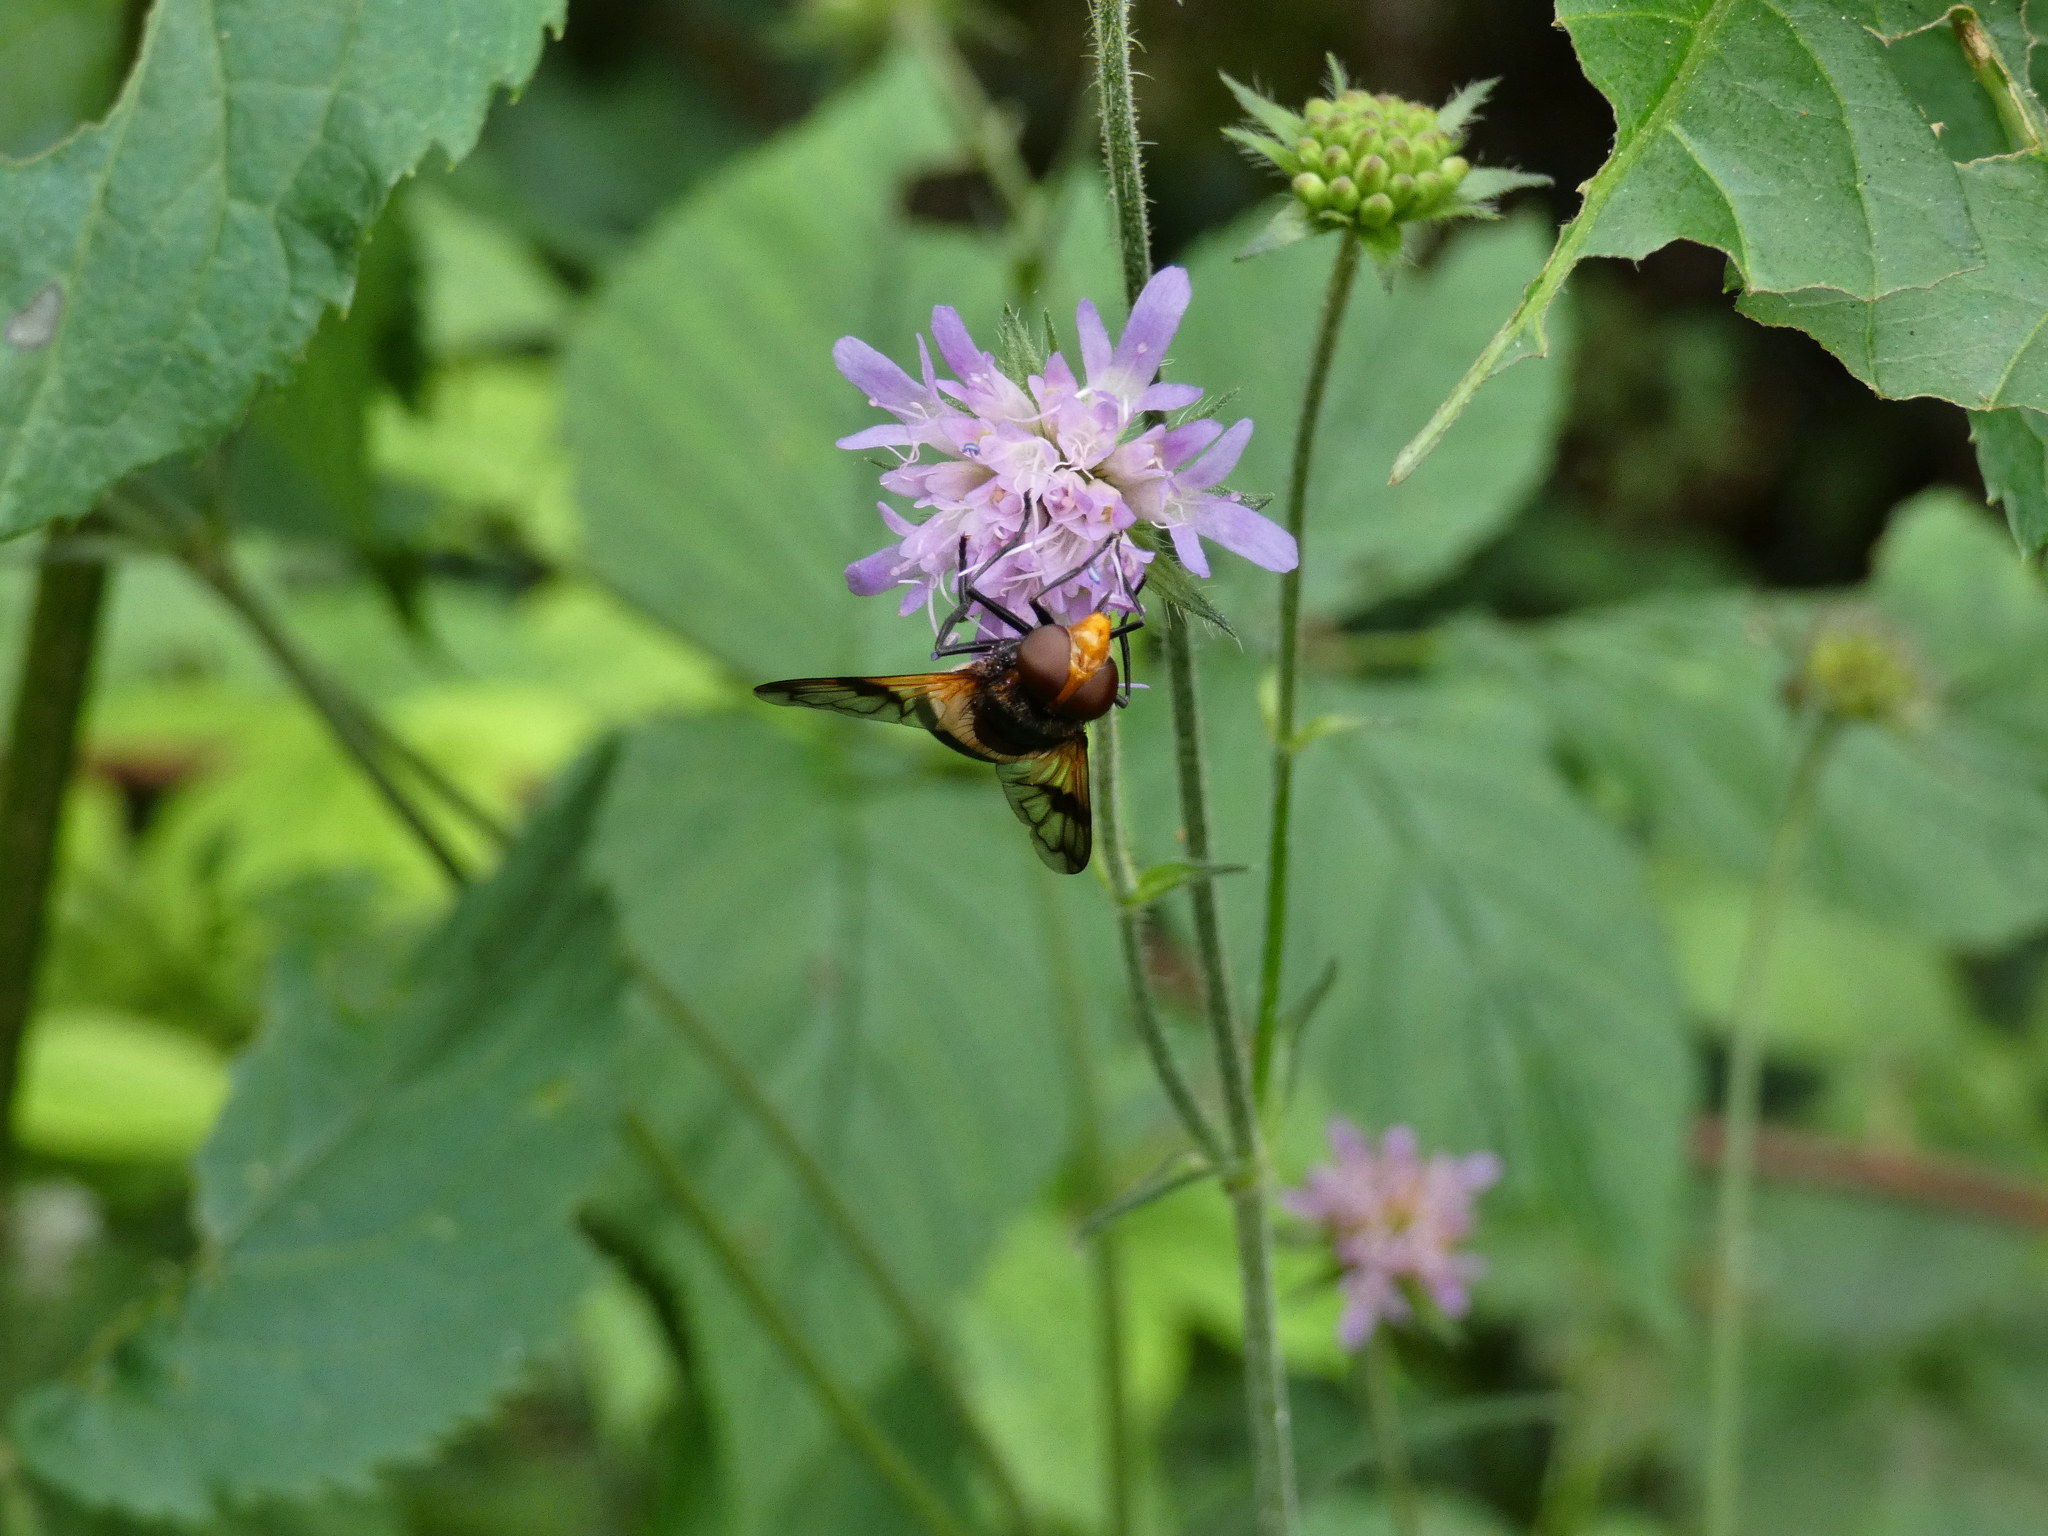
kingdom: Animalia
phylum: Arthropoda
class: Insecta
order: Diptera
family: Syrphidae
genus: Volucella
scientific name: Volucella pellucens
